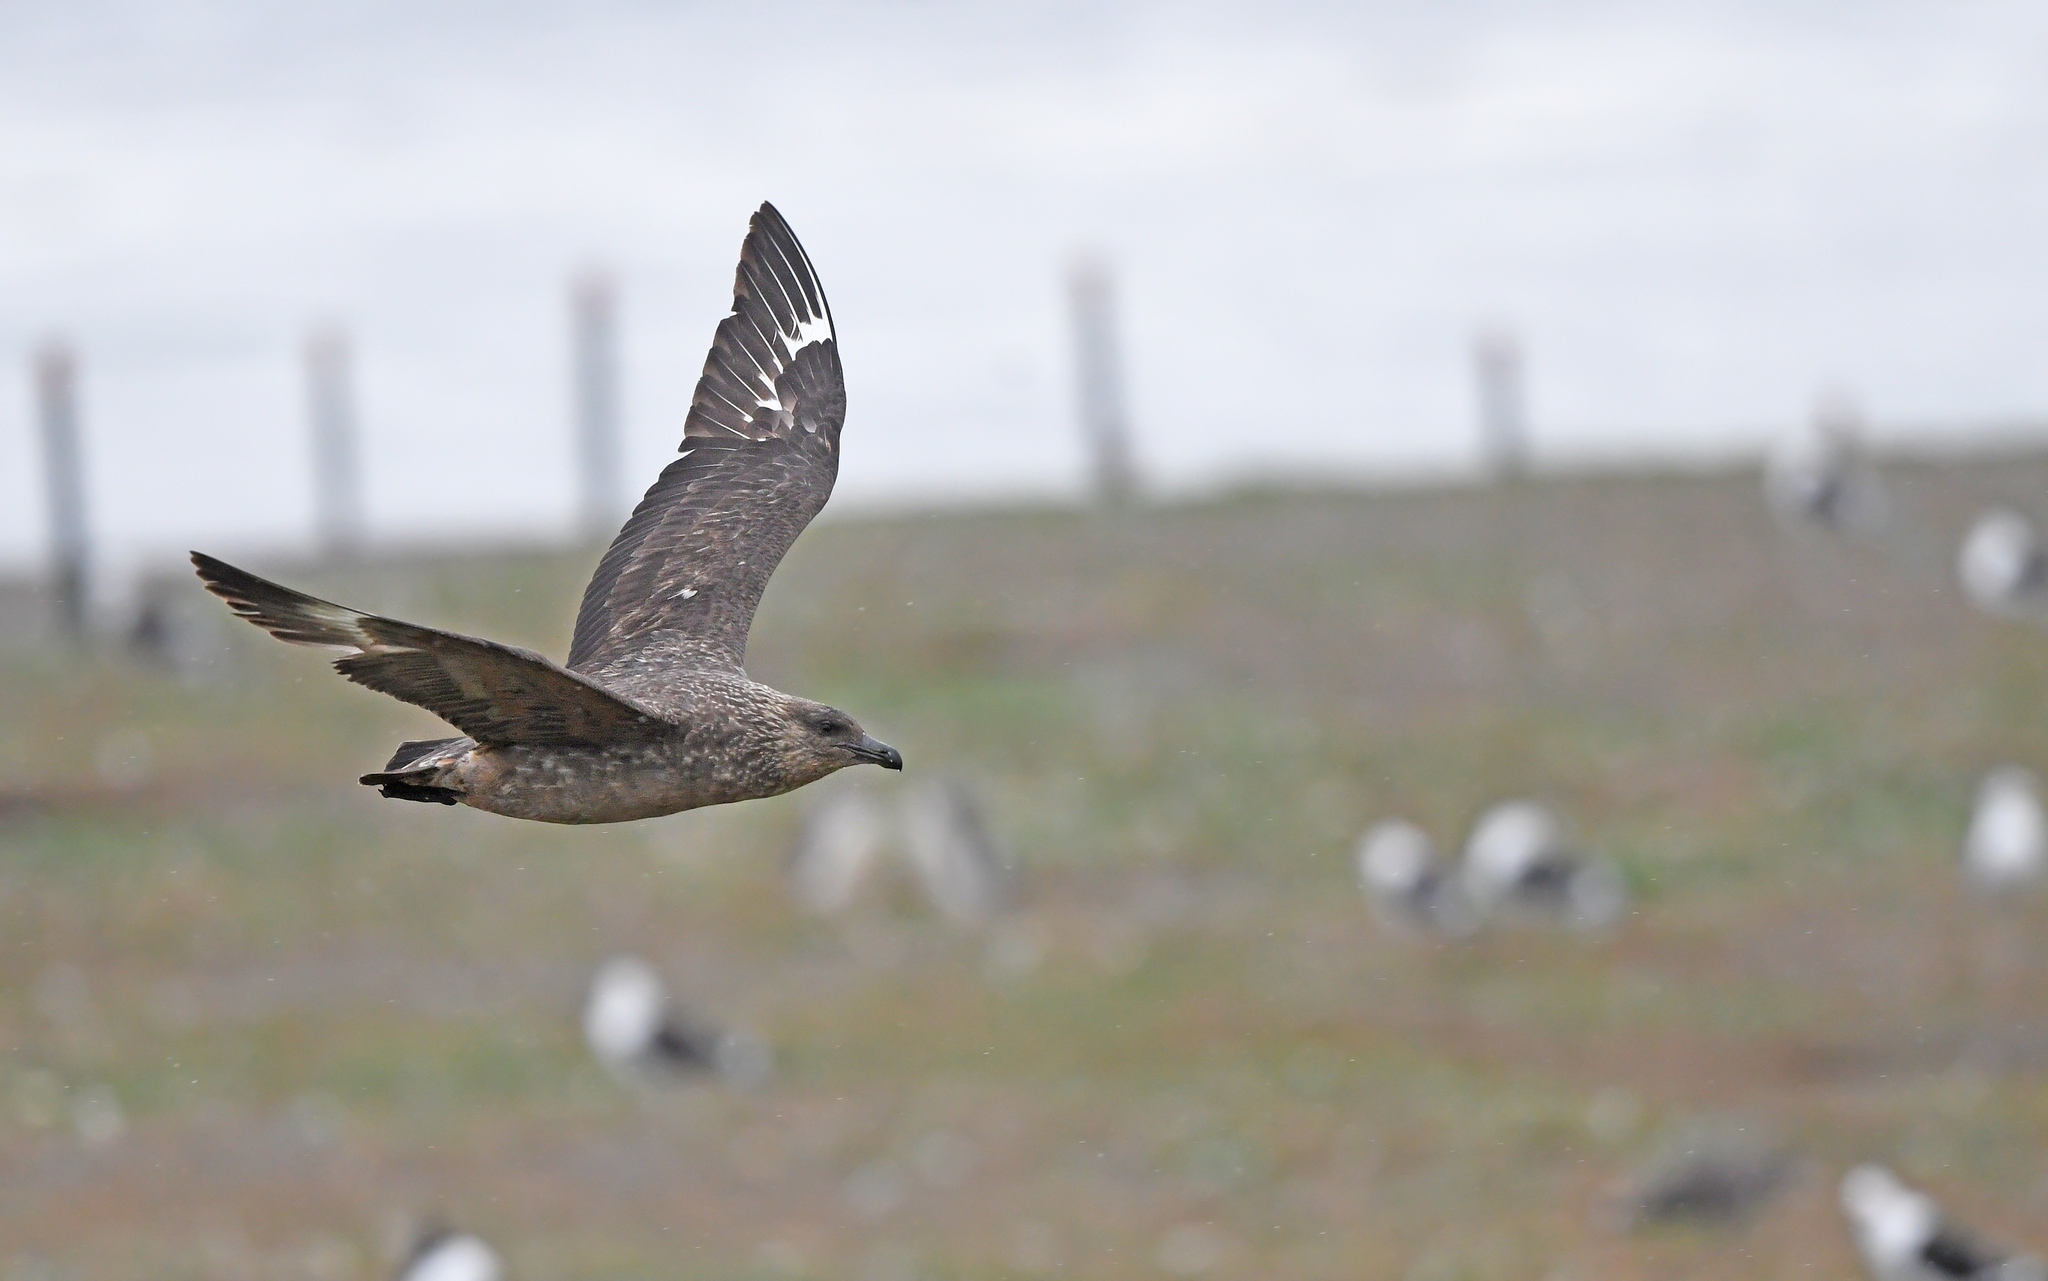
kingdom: Animalia
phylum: Chordata
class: Aves
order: Charadriiformes
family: Stercorariidae
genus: Stercorarius
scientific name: Stercorarius chilensis
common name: Chilean skua
